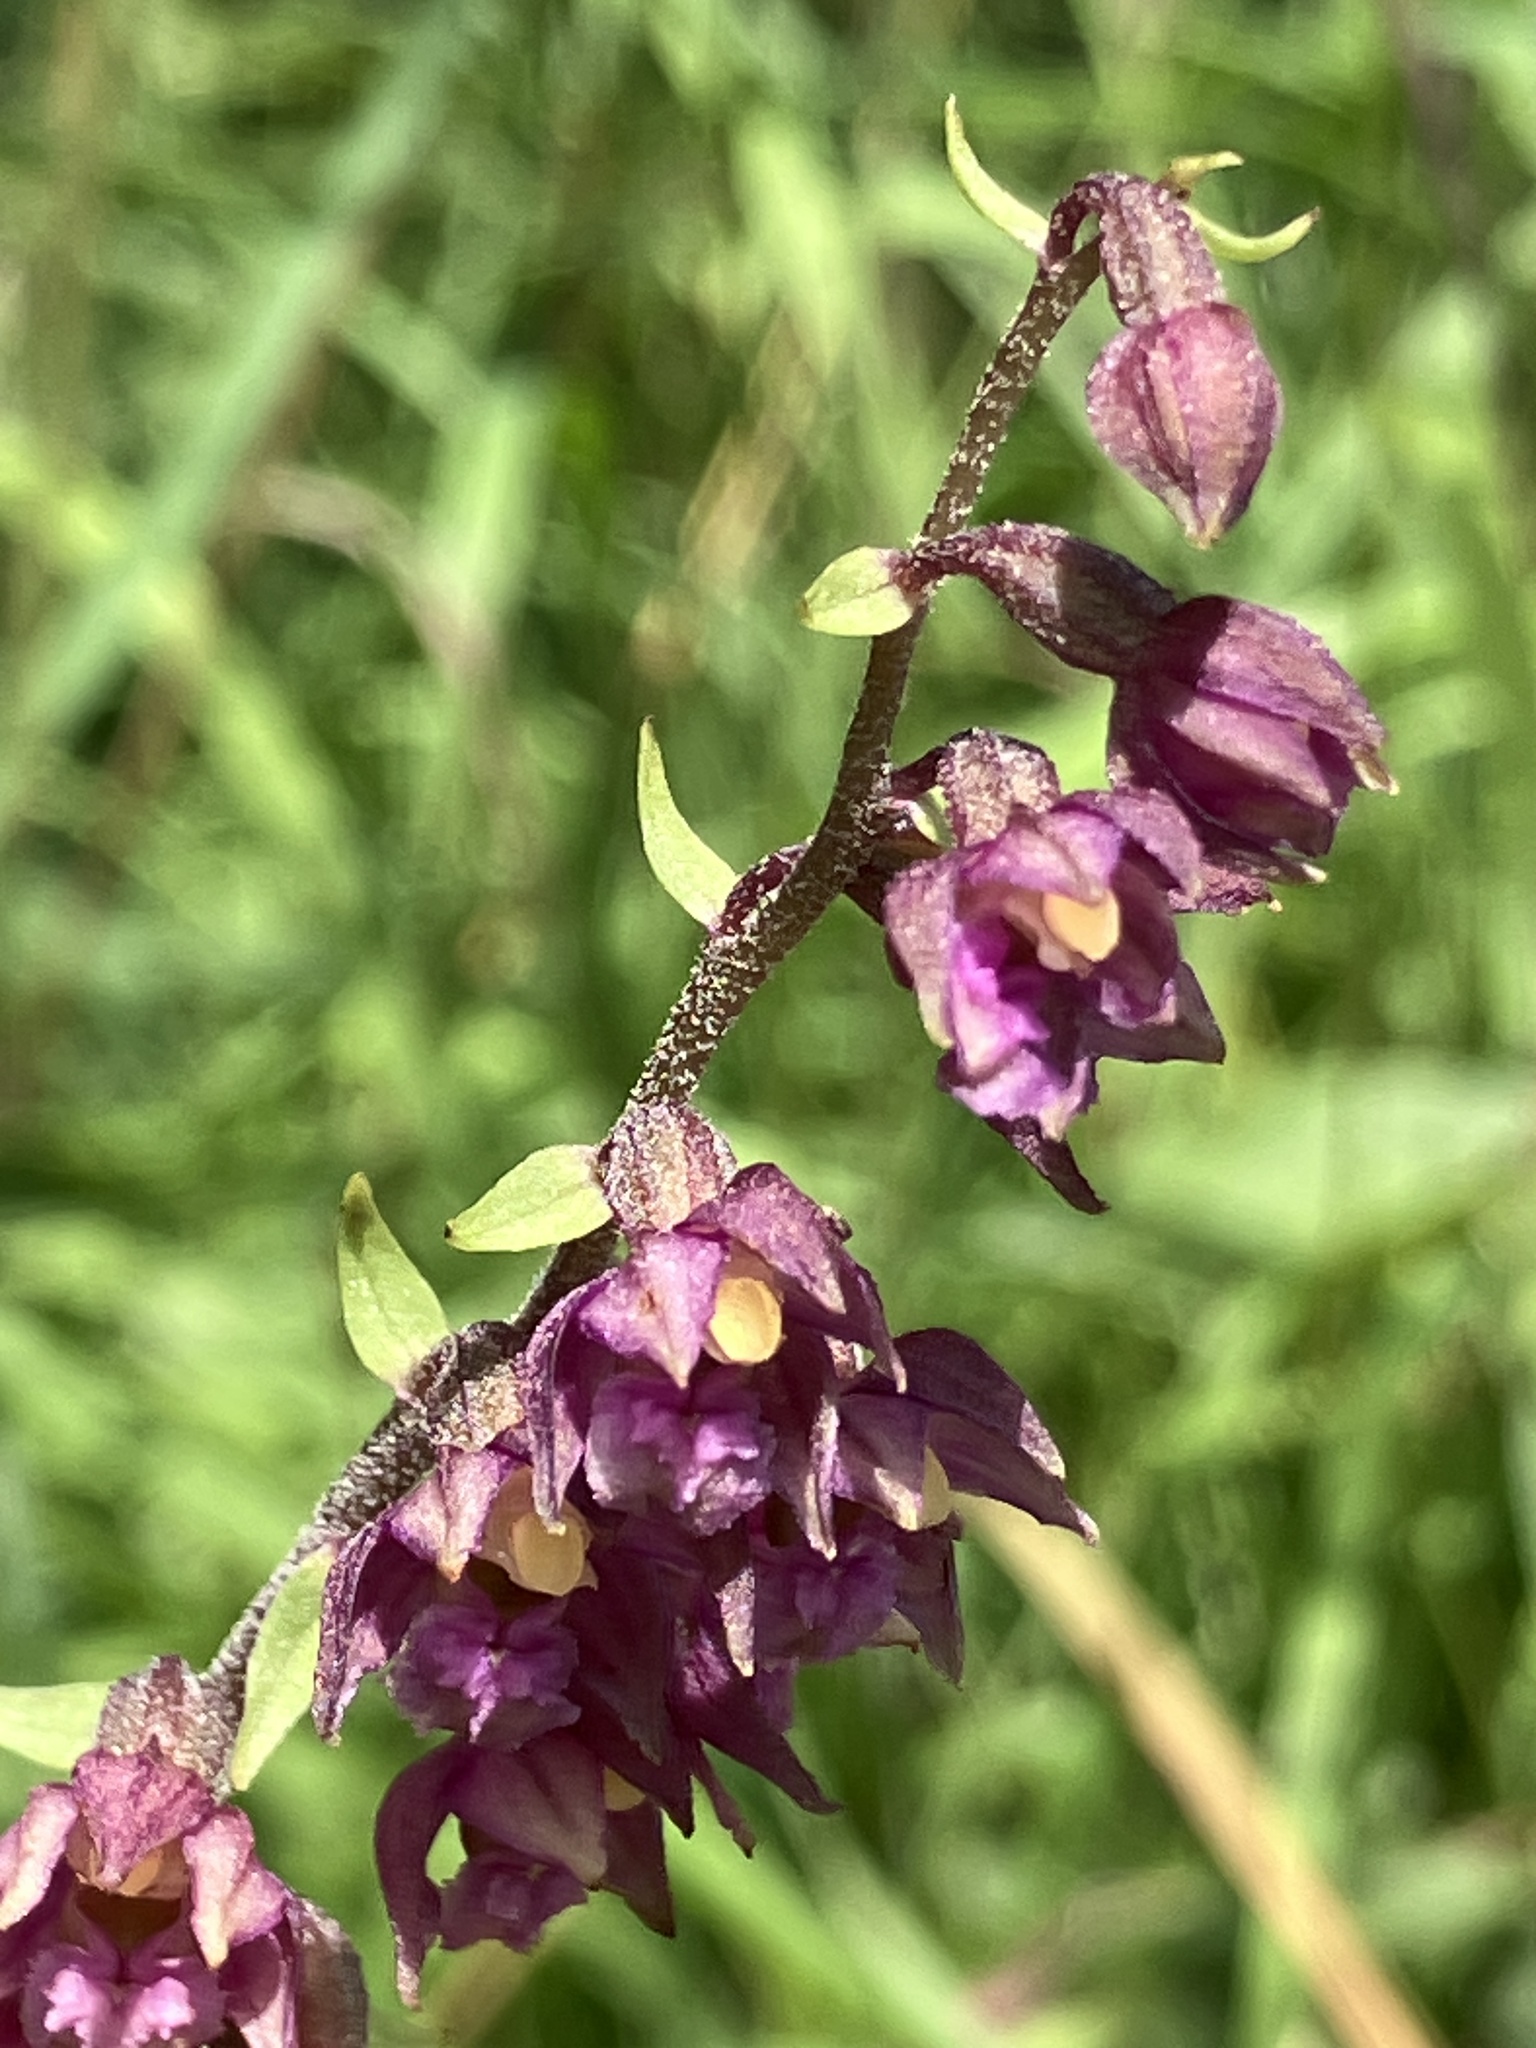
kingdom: Plantae
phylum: Tracheophyta
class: Liliopsida
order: Asparagales
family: Orchidaceae
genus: Epipactis
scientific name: Epipactis atrorubens
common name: Dark-red helleborine
